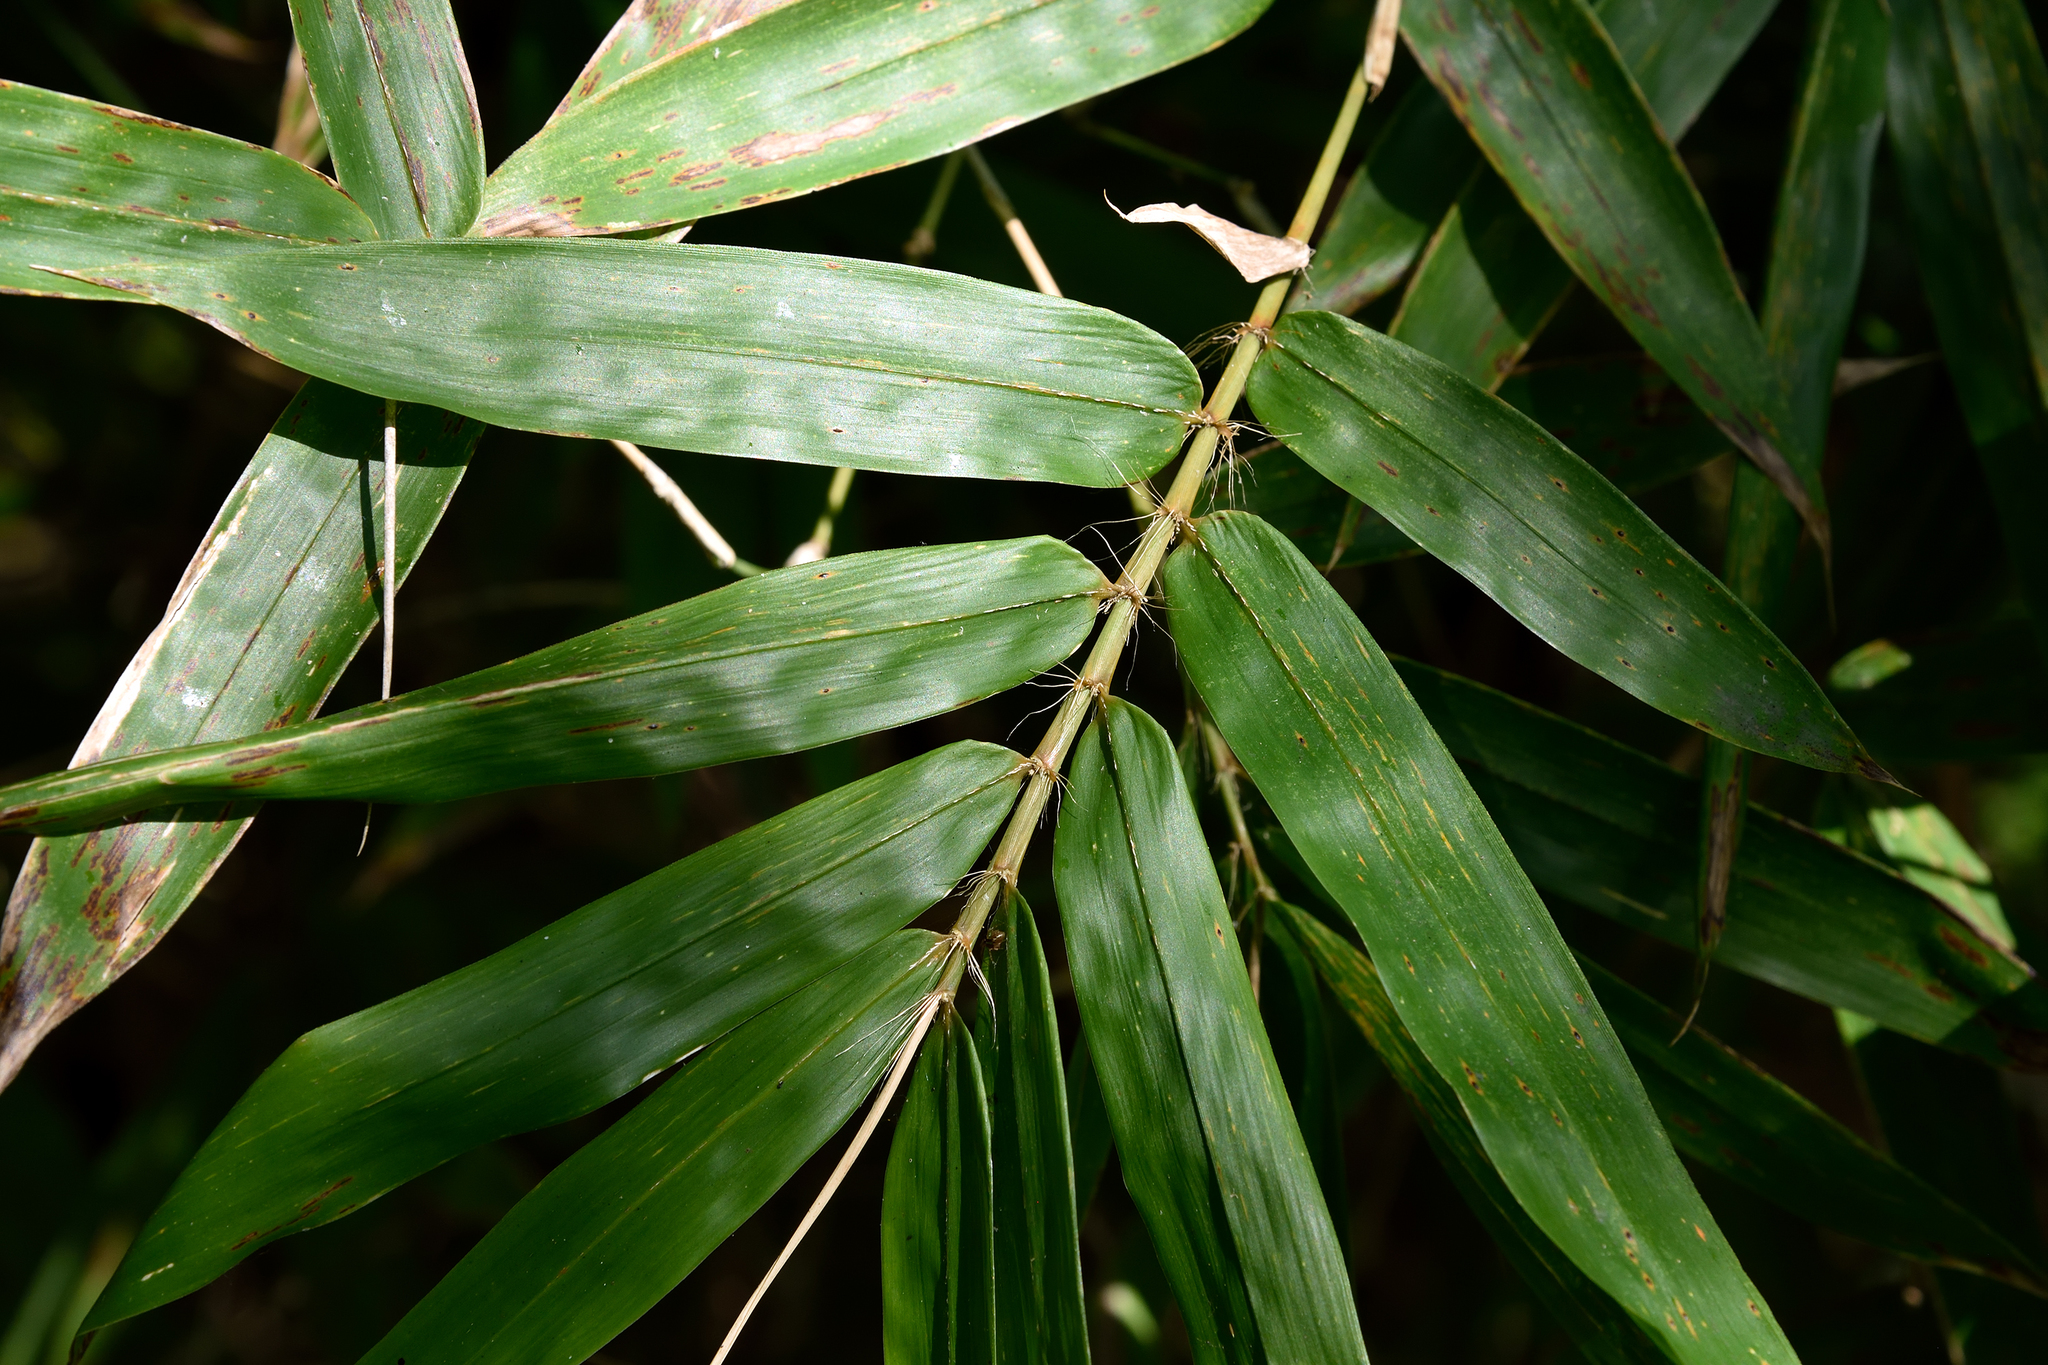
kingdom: Plantae
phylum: Tracheophyta
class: Liliopsida
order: Poales
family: Poaceae
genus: Bambusa
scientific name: Bambusa pachinensis
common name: Pachi bamboo
